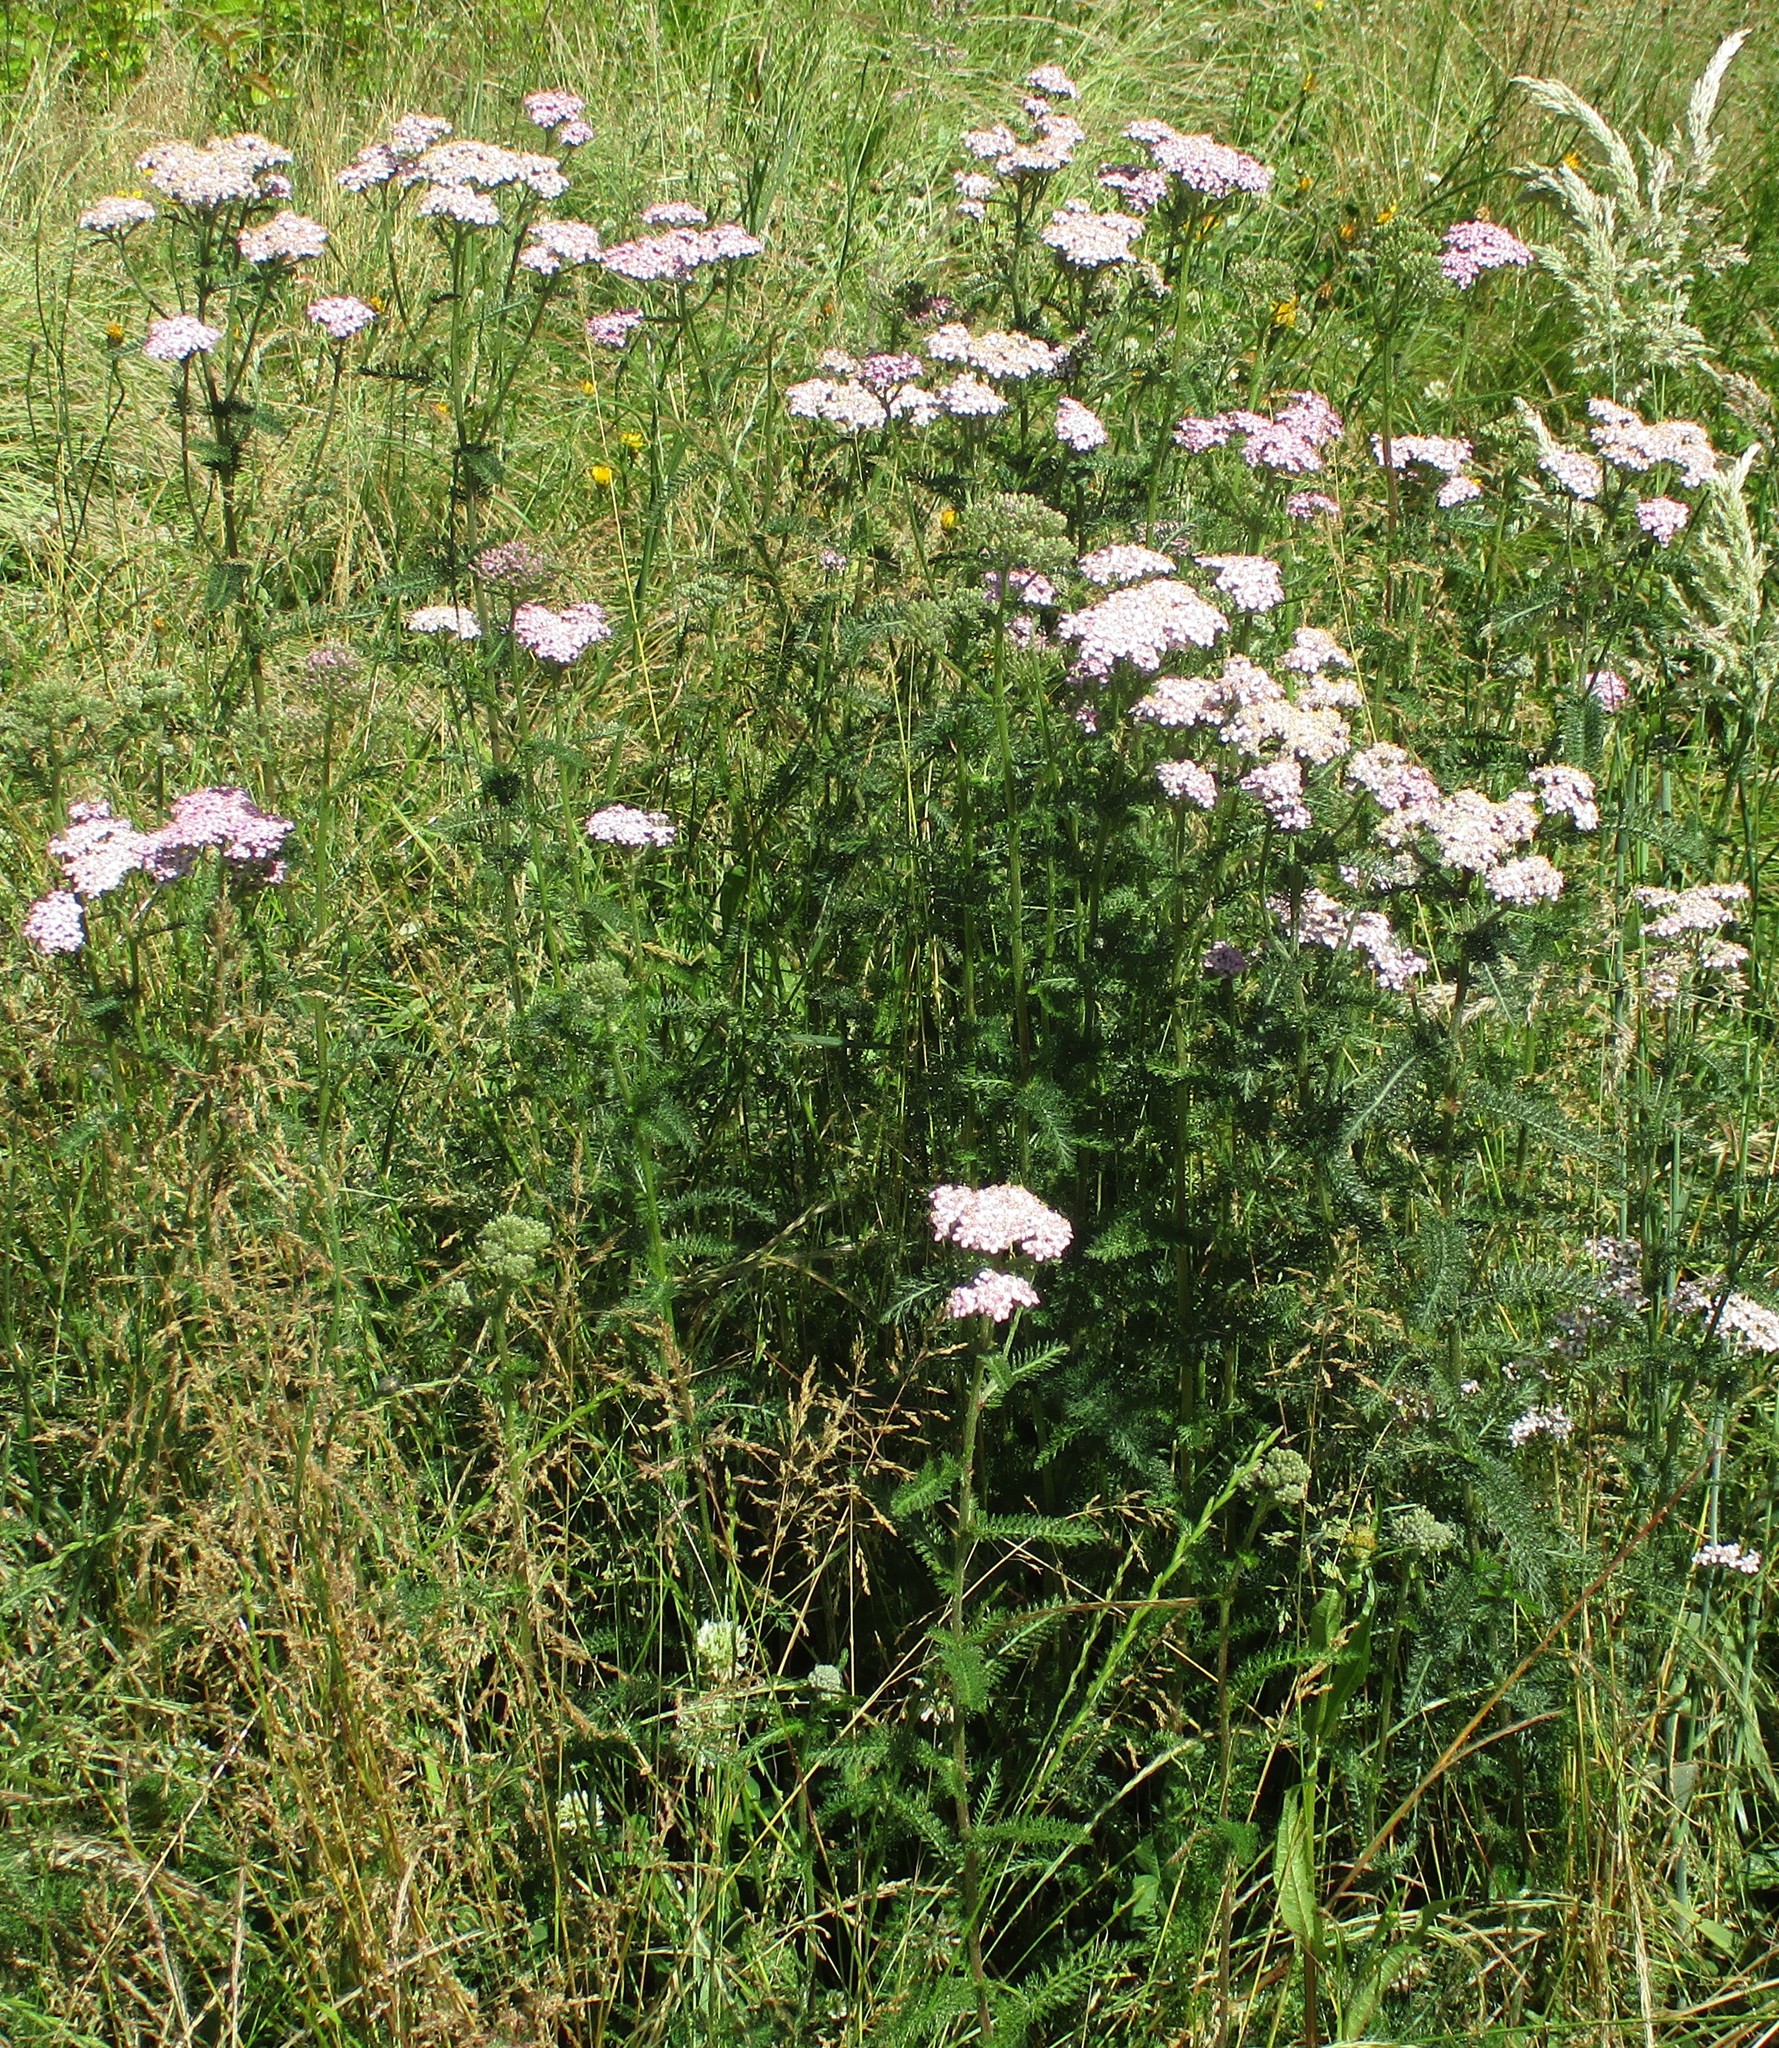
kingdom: Plantae
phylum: Tracheophyta
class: Magnoliopsida
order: Asterales
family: Asteraceae
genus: Achillea
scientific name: Achillea millefolium
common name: Yarrow
